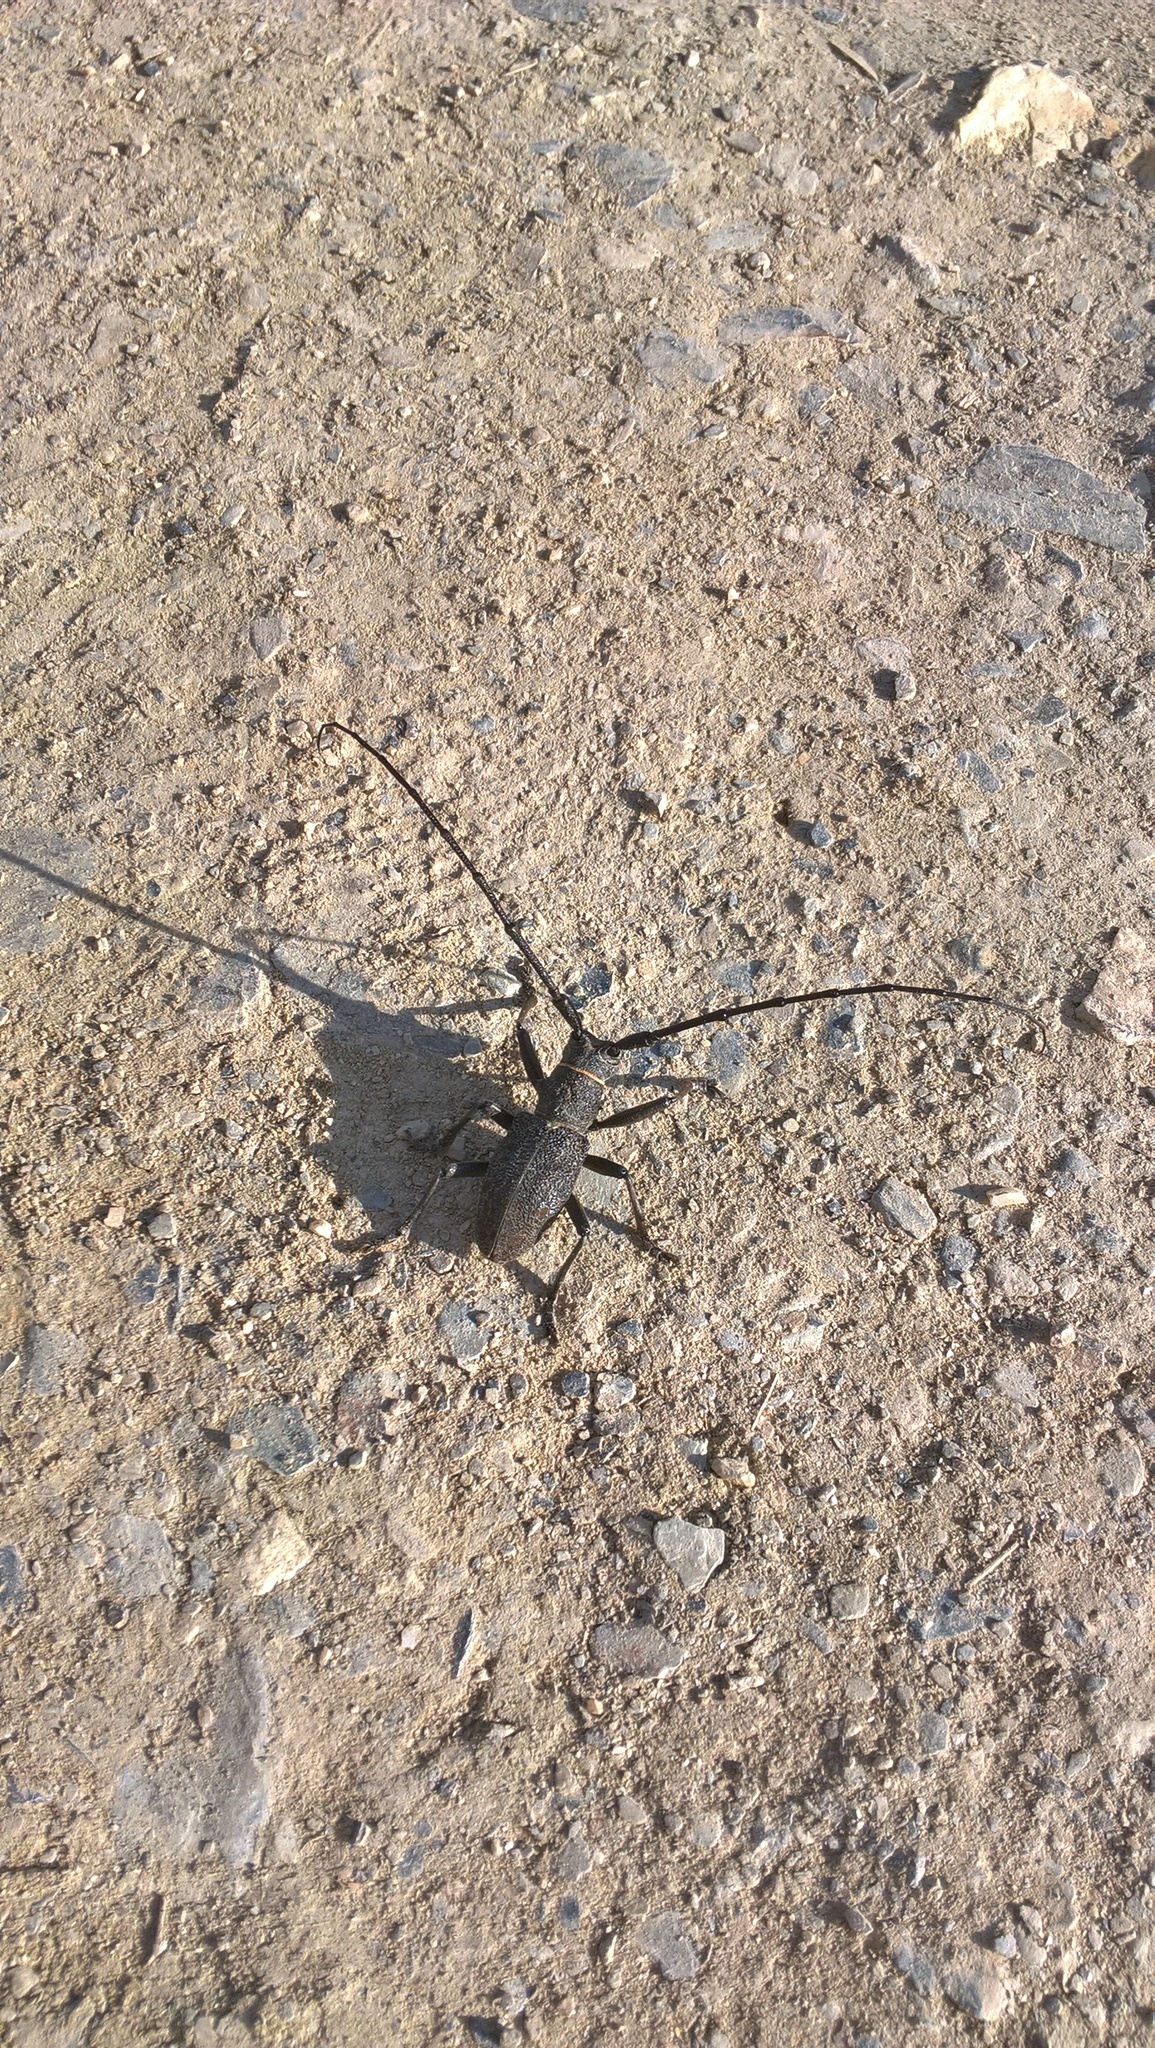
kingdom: Animalia
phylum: Arthropoda
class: Insecta
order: Coleoptera
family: Cerambycidae
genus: Morimus
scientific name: Morimus asper
